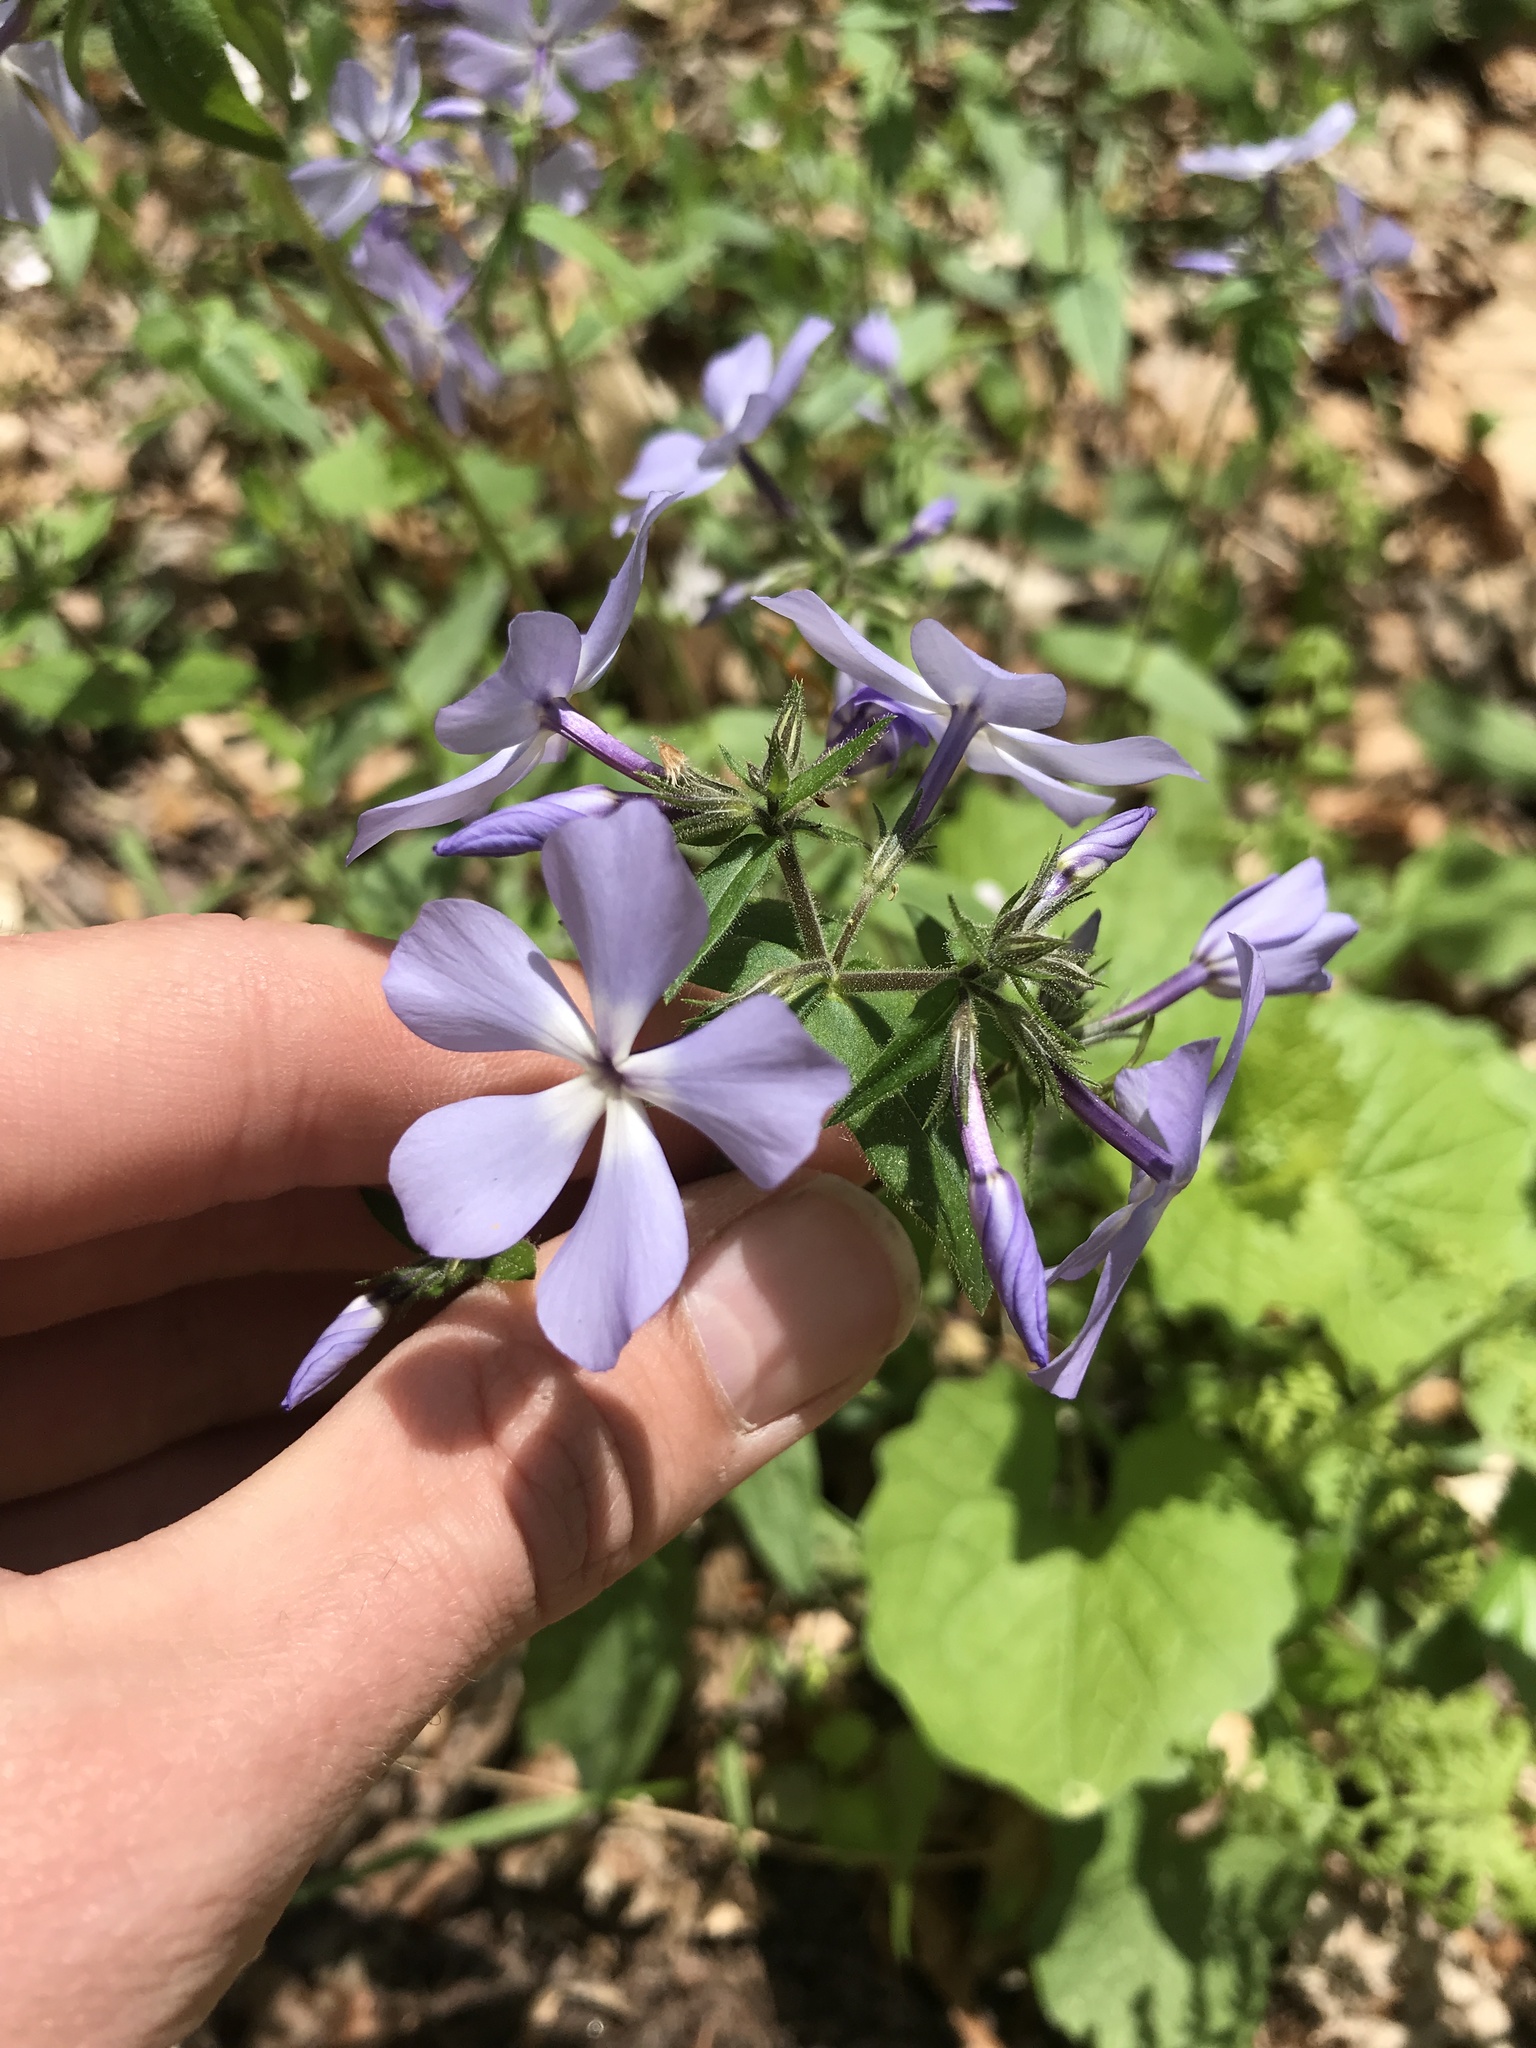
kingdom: Plantae
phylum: Tracheophyta
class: Magnoliopsida
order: Ericales
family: Polemoniaceae
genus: Phlox
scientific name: Phlox divaricata
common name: Blue phlox
